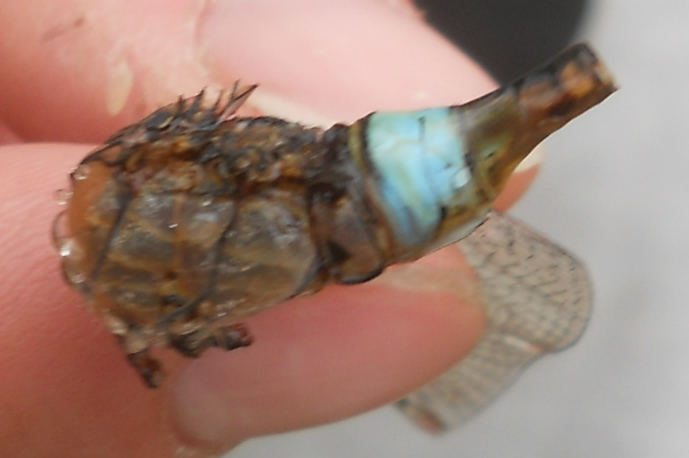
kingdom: Animalia
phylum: Arthropoda
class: Insecta
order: Odonata
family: Aeshnidae
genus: Anax
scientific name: Anax parthenope
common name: Lesser emperor
